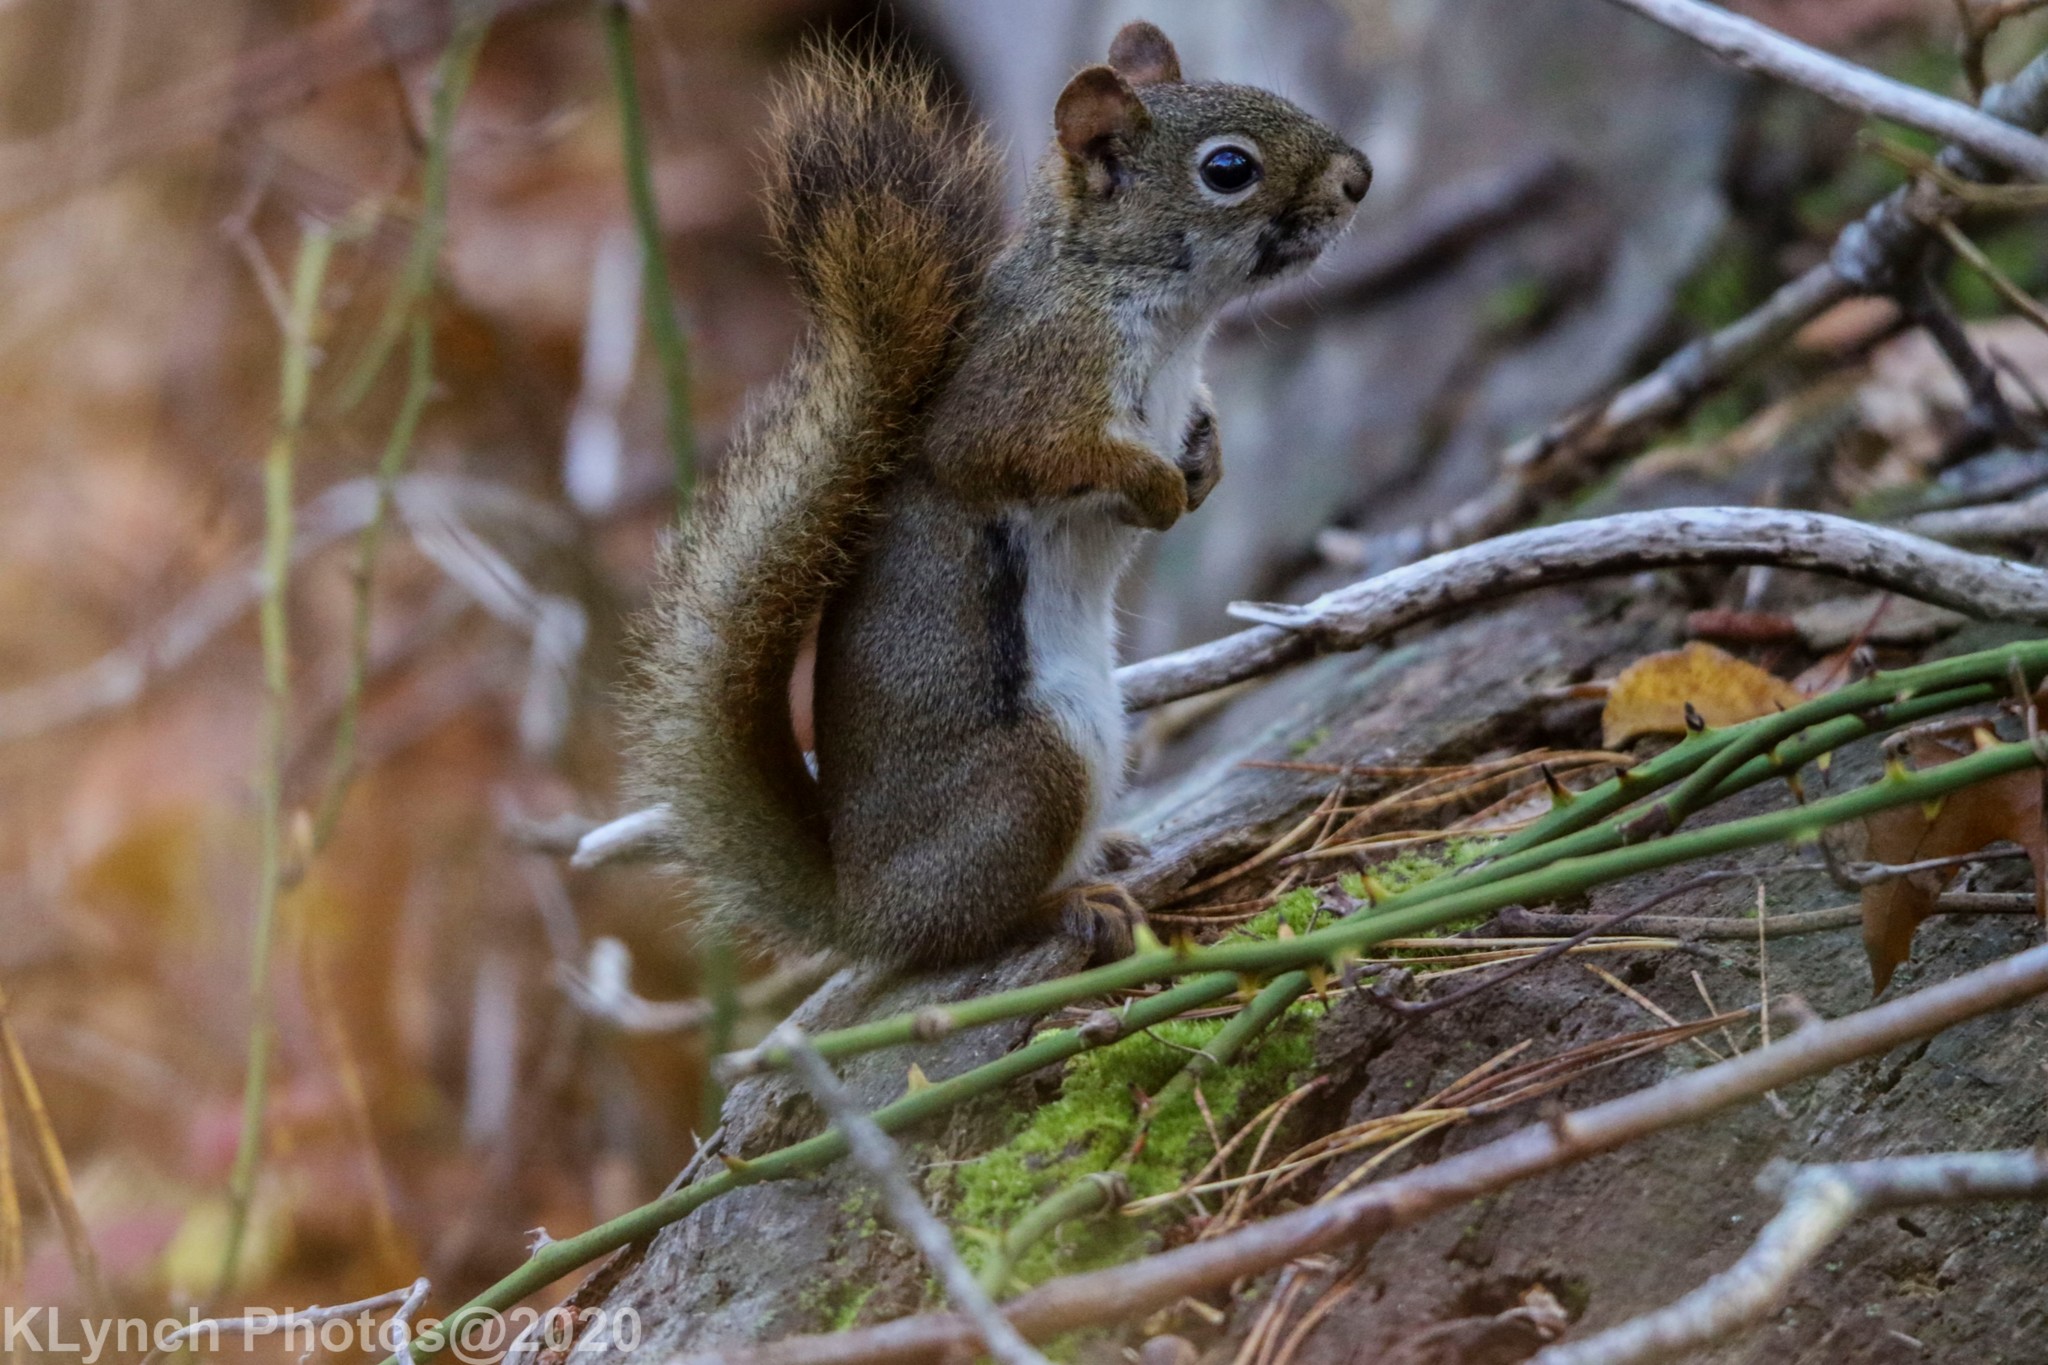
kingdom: Animalia
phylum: Chordata
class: Mammalia
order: Rodentia
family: Sciuridae
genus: Tamiasciurus
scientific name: Tamiasciurus hudsonicus
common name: Red squirrel
